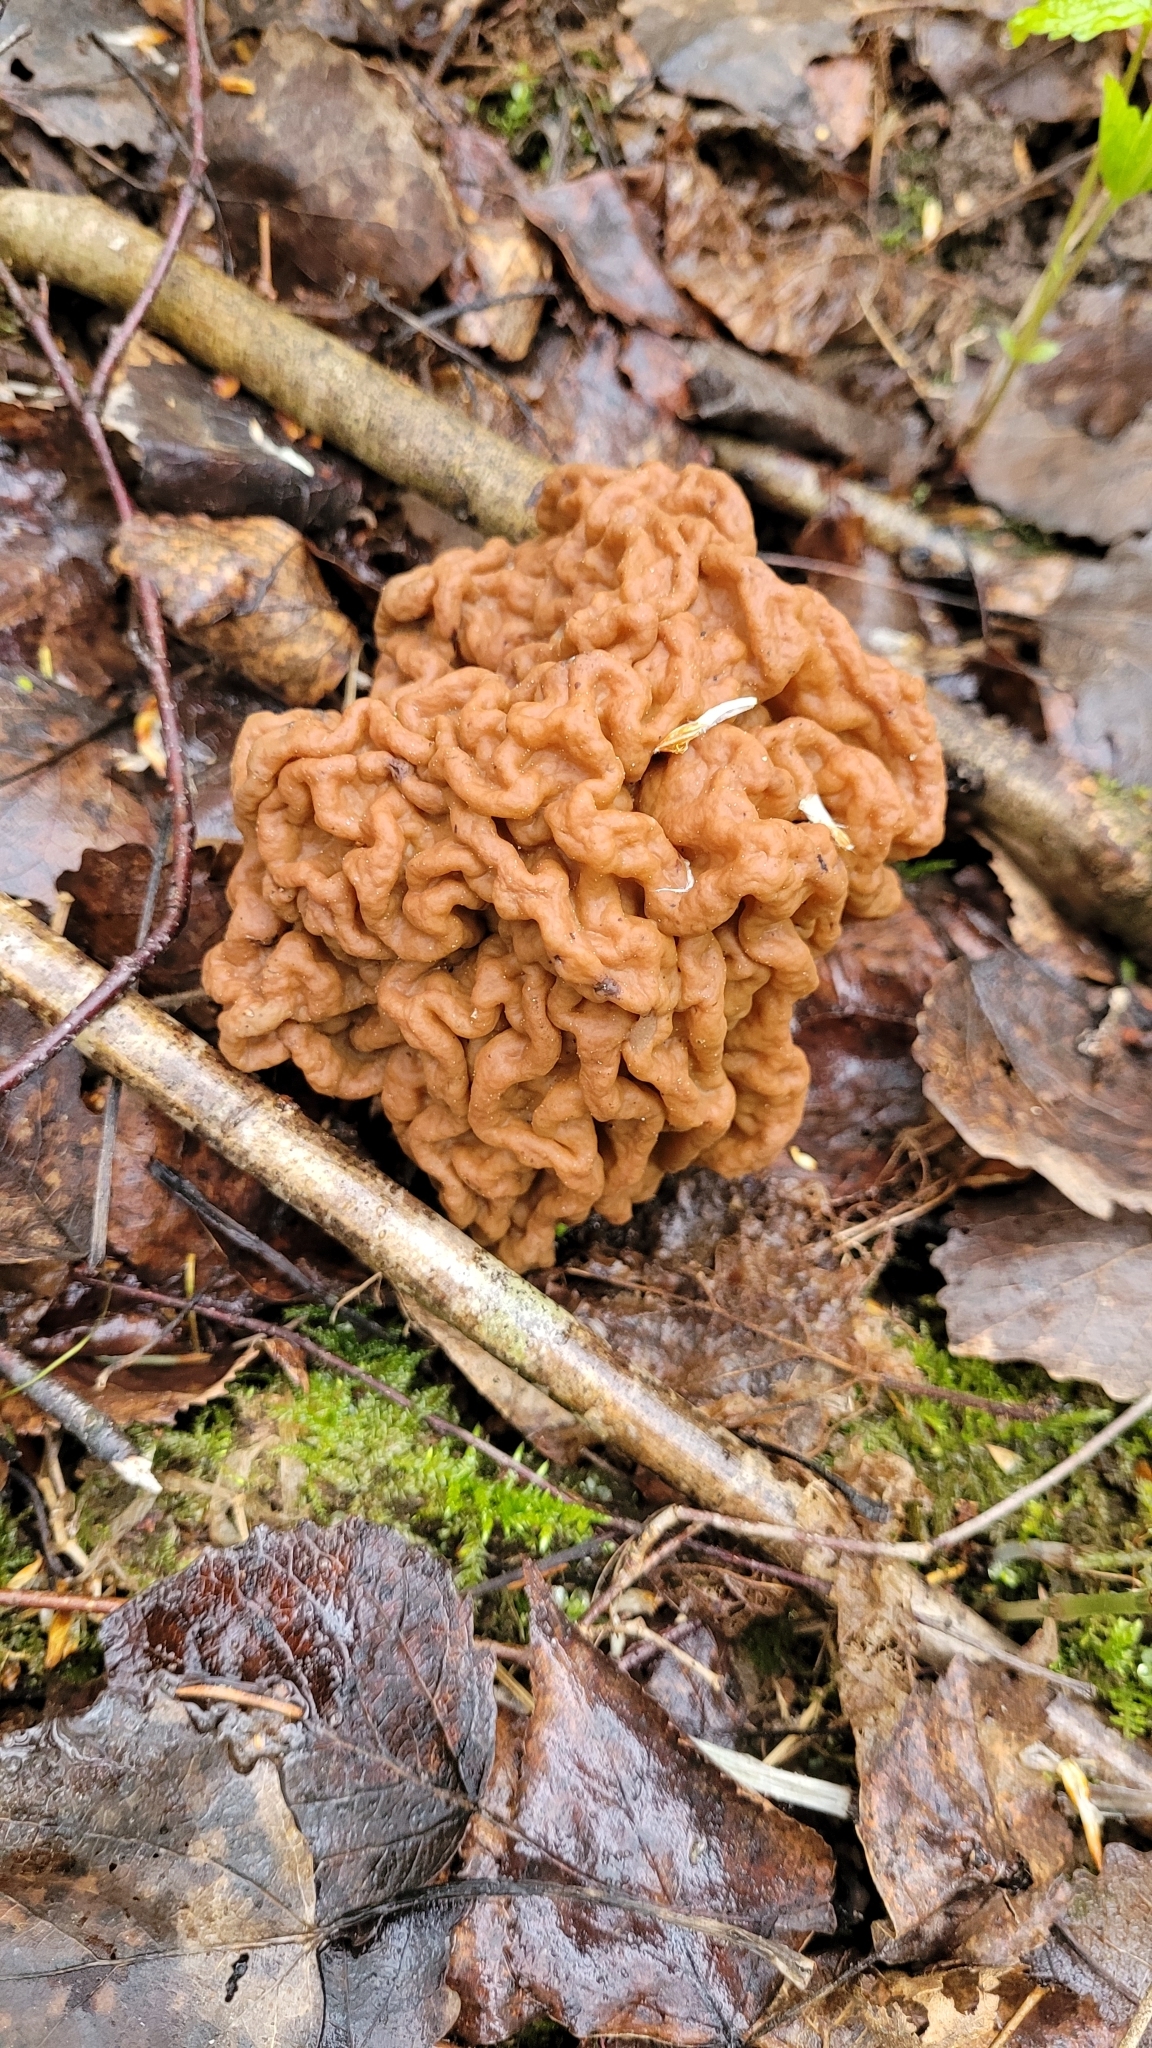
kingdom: Fungi
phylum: Ascomycota
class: Pezizomycetes
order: Pezizales
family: Discinaceae
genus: Gyromitra
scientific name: Gyromitra gigas
